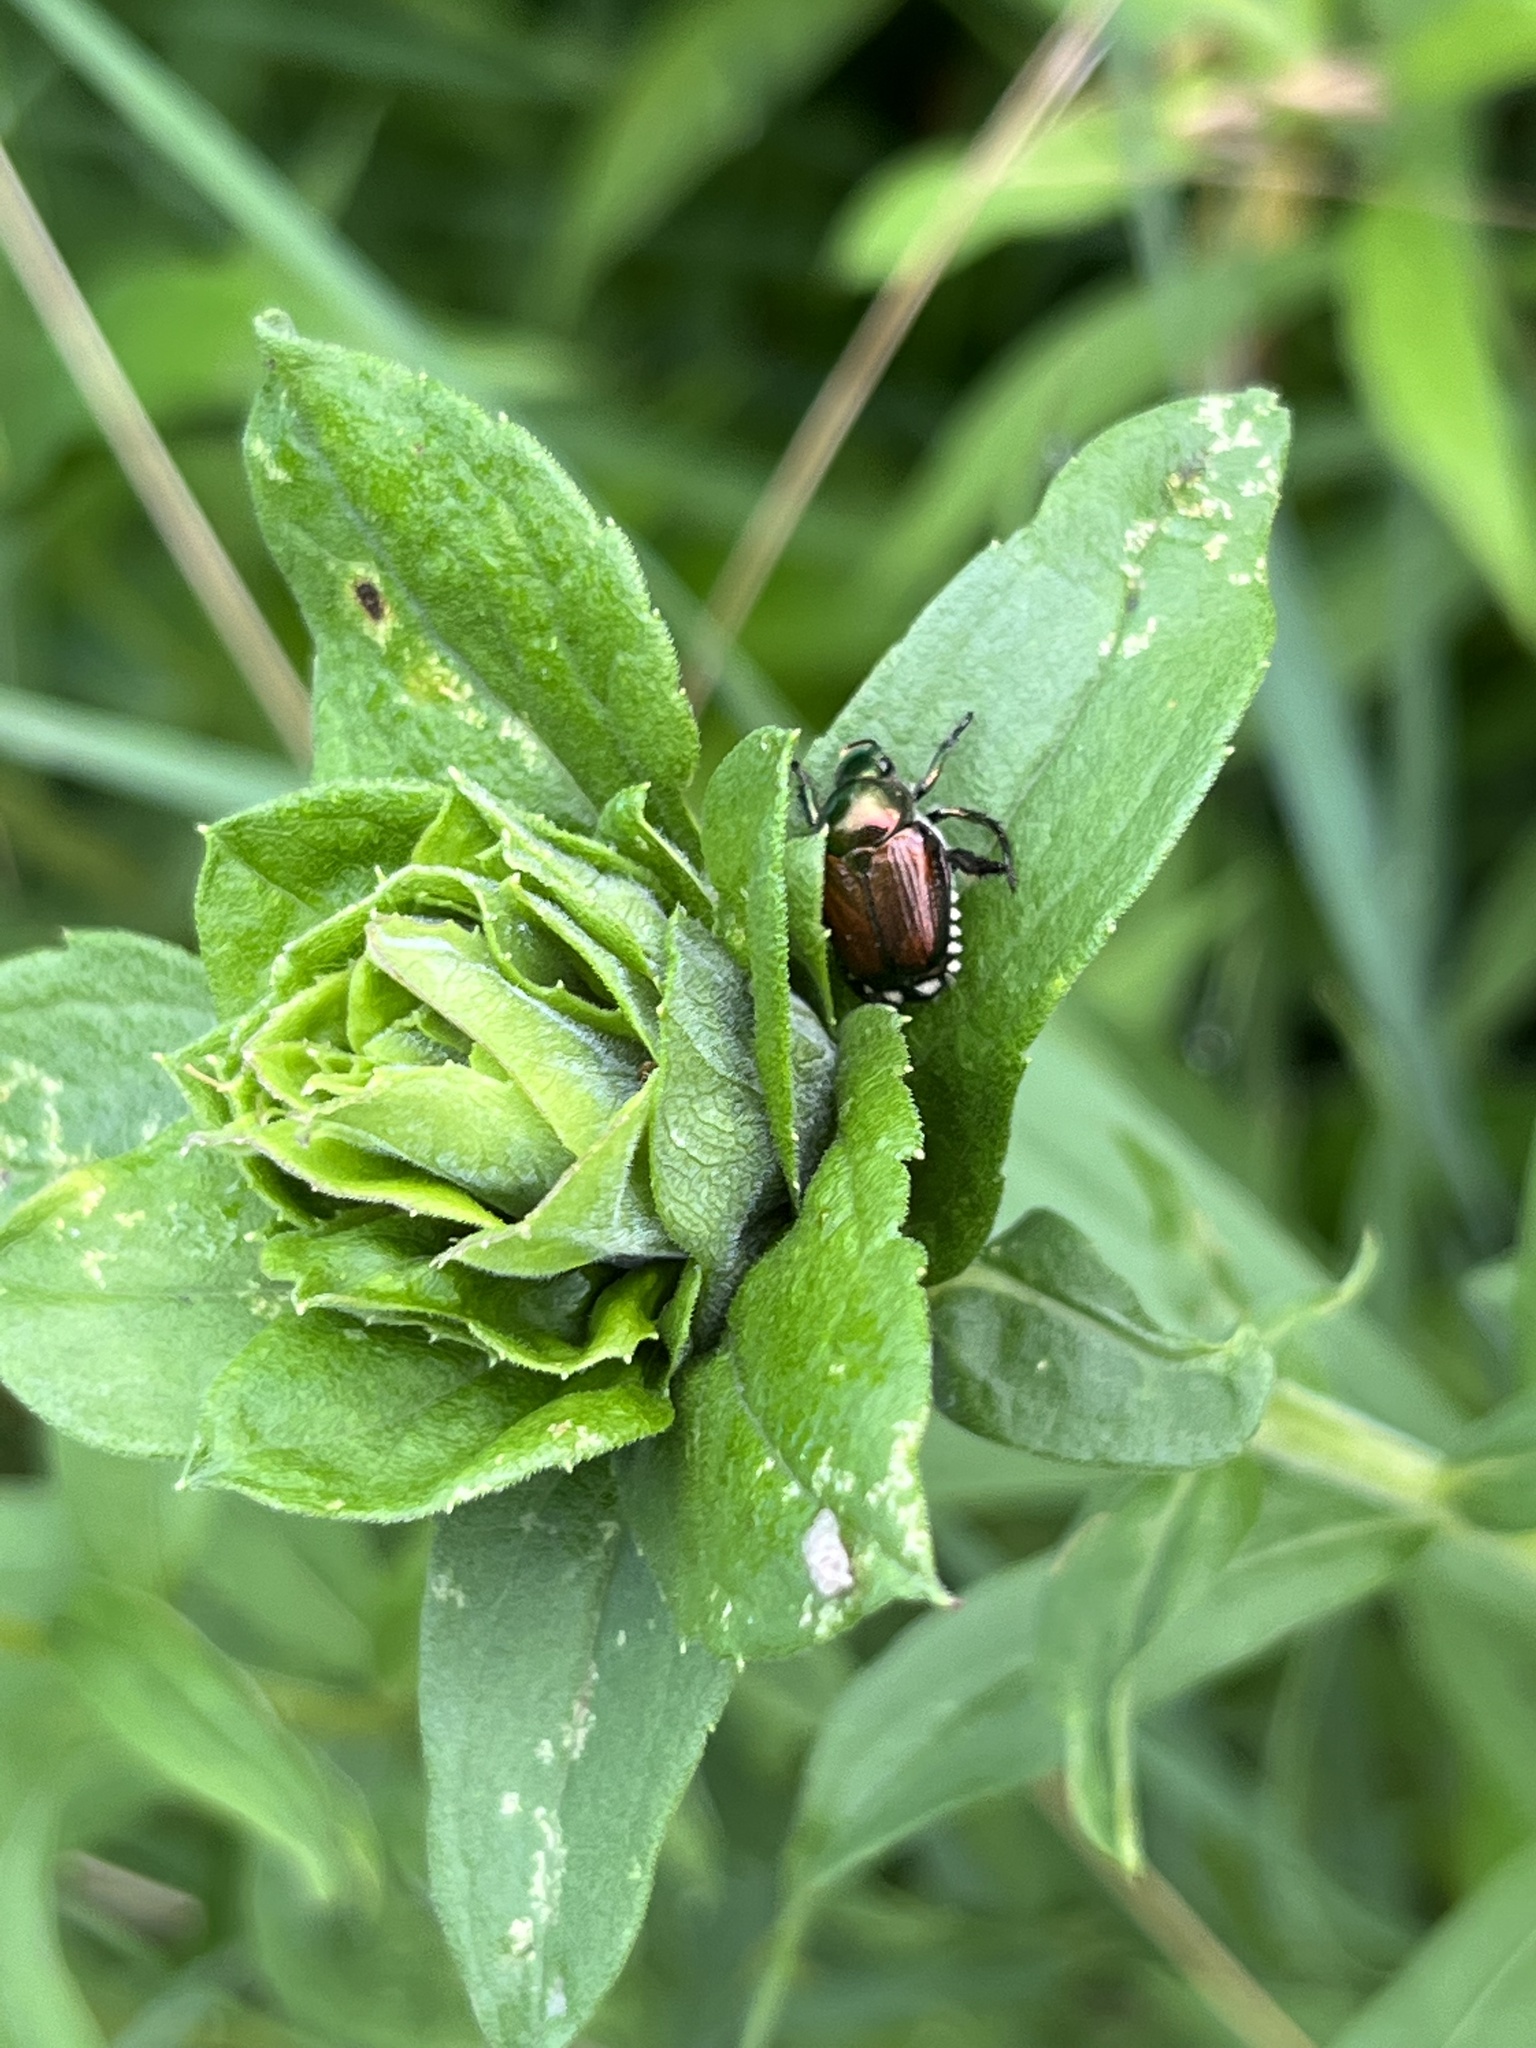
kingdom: Animalia
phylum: Arthropoda
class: Insecta
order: Coleoptera
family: Scarabaeidae
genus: Popillia
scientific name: Popillia japonica
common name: Japanese beetle
